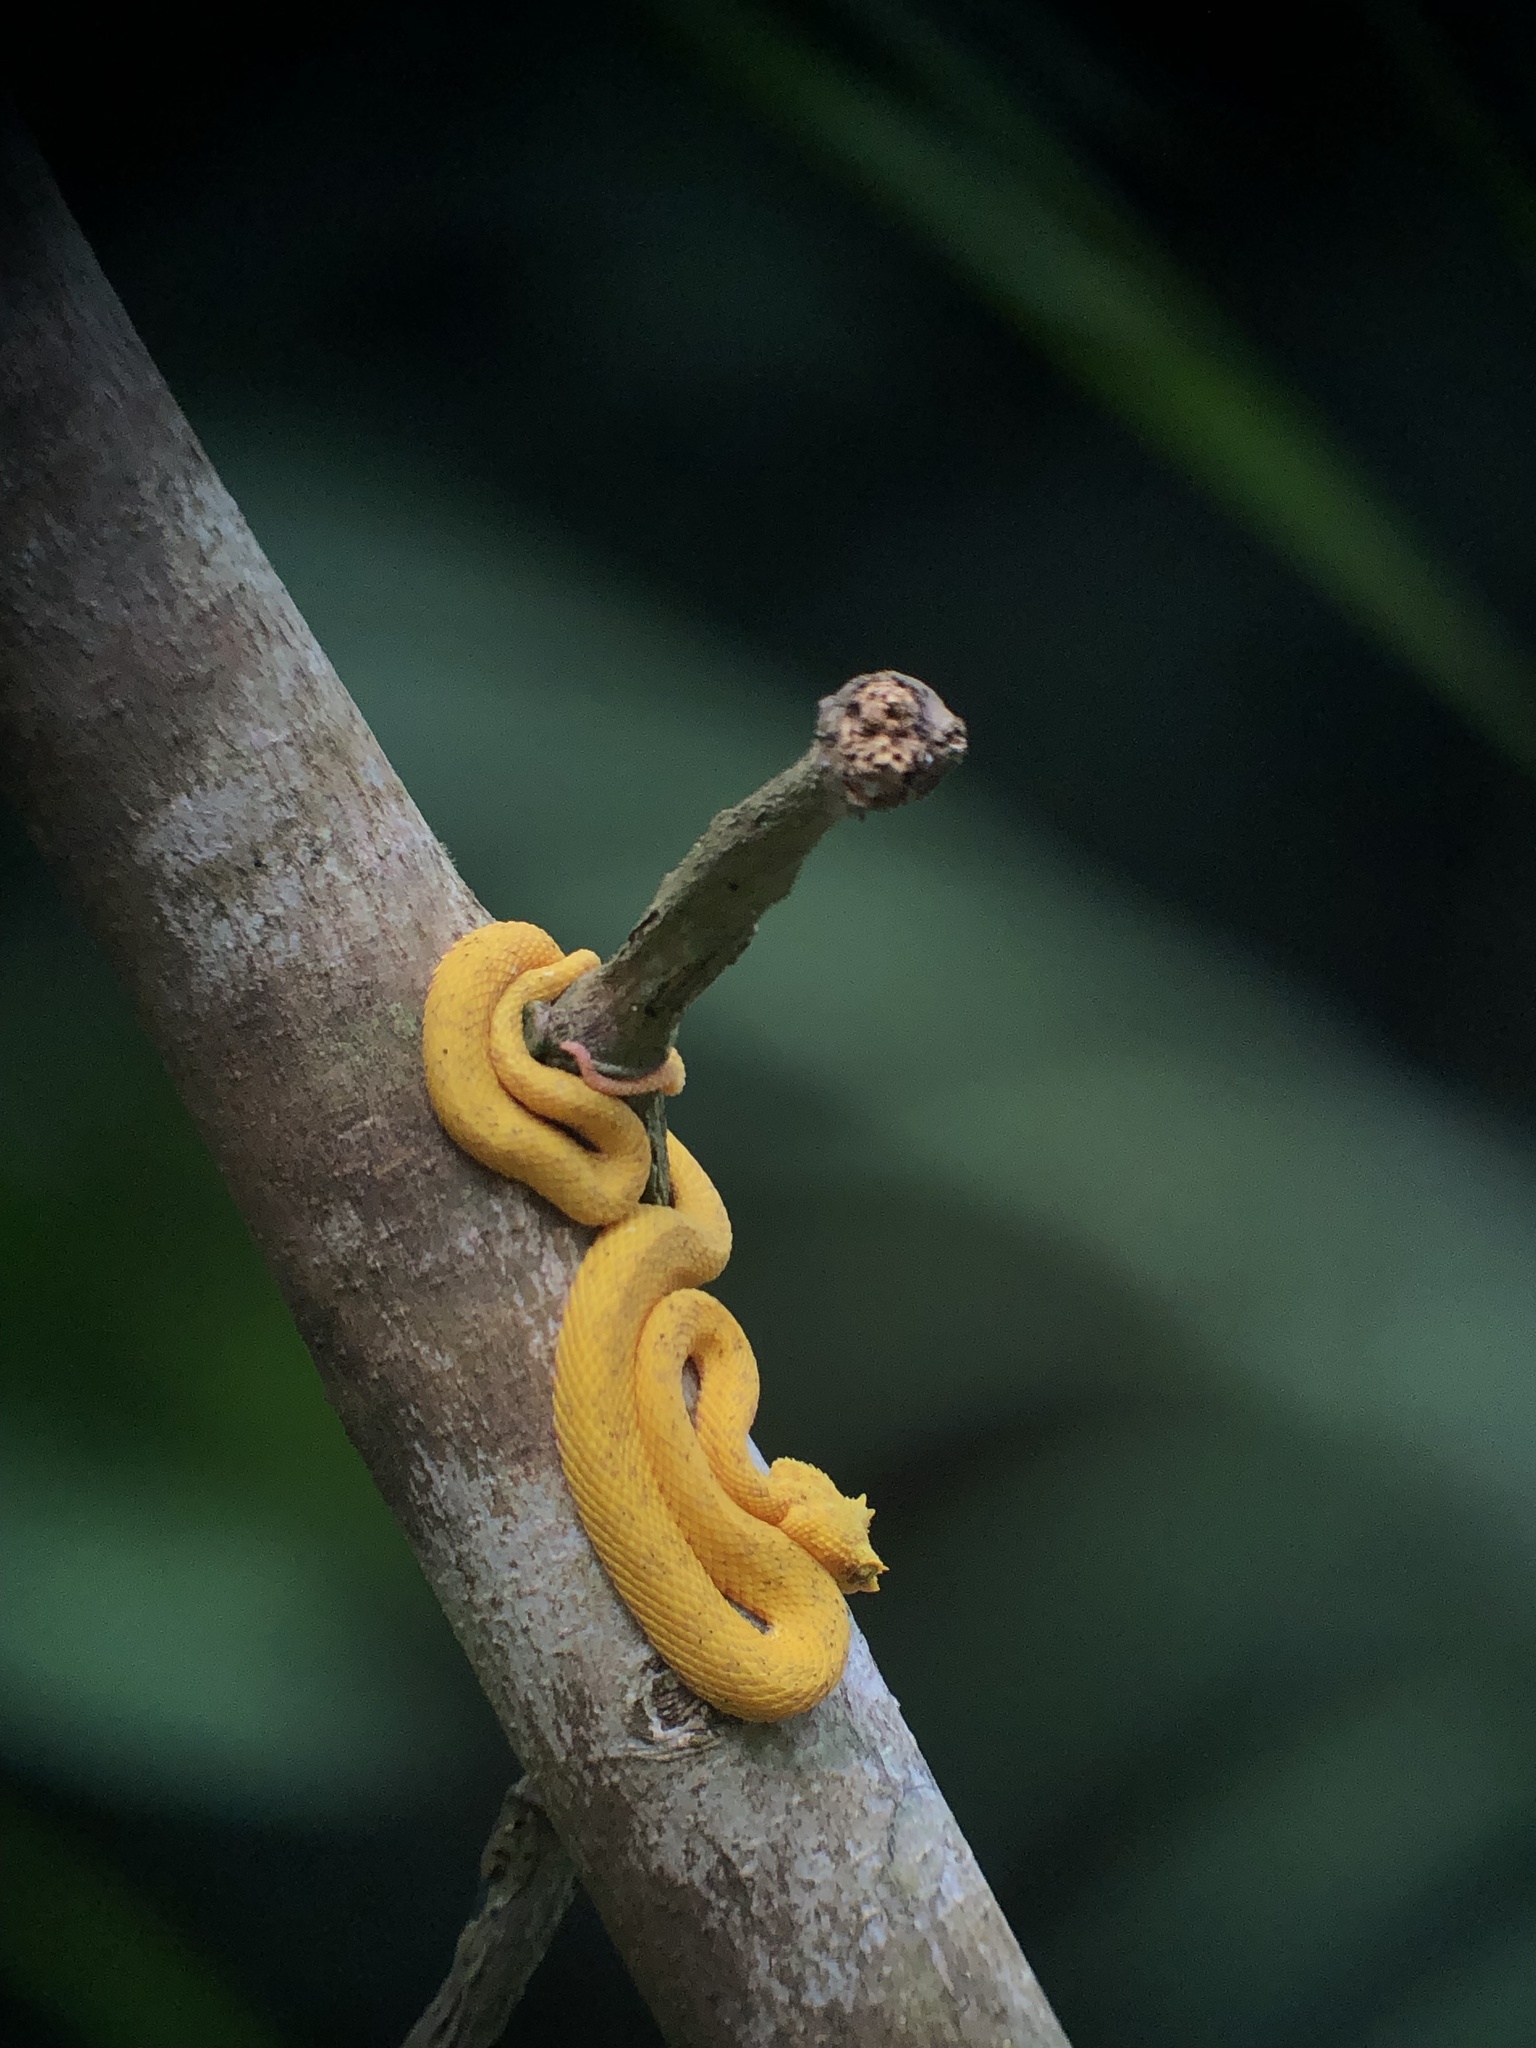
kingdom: Animalia
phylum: Chordata
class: Squamata
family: Viperidae
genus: Bothriechis
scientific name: Bothriechis schlegelii
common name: Eyelash viper
